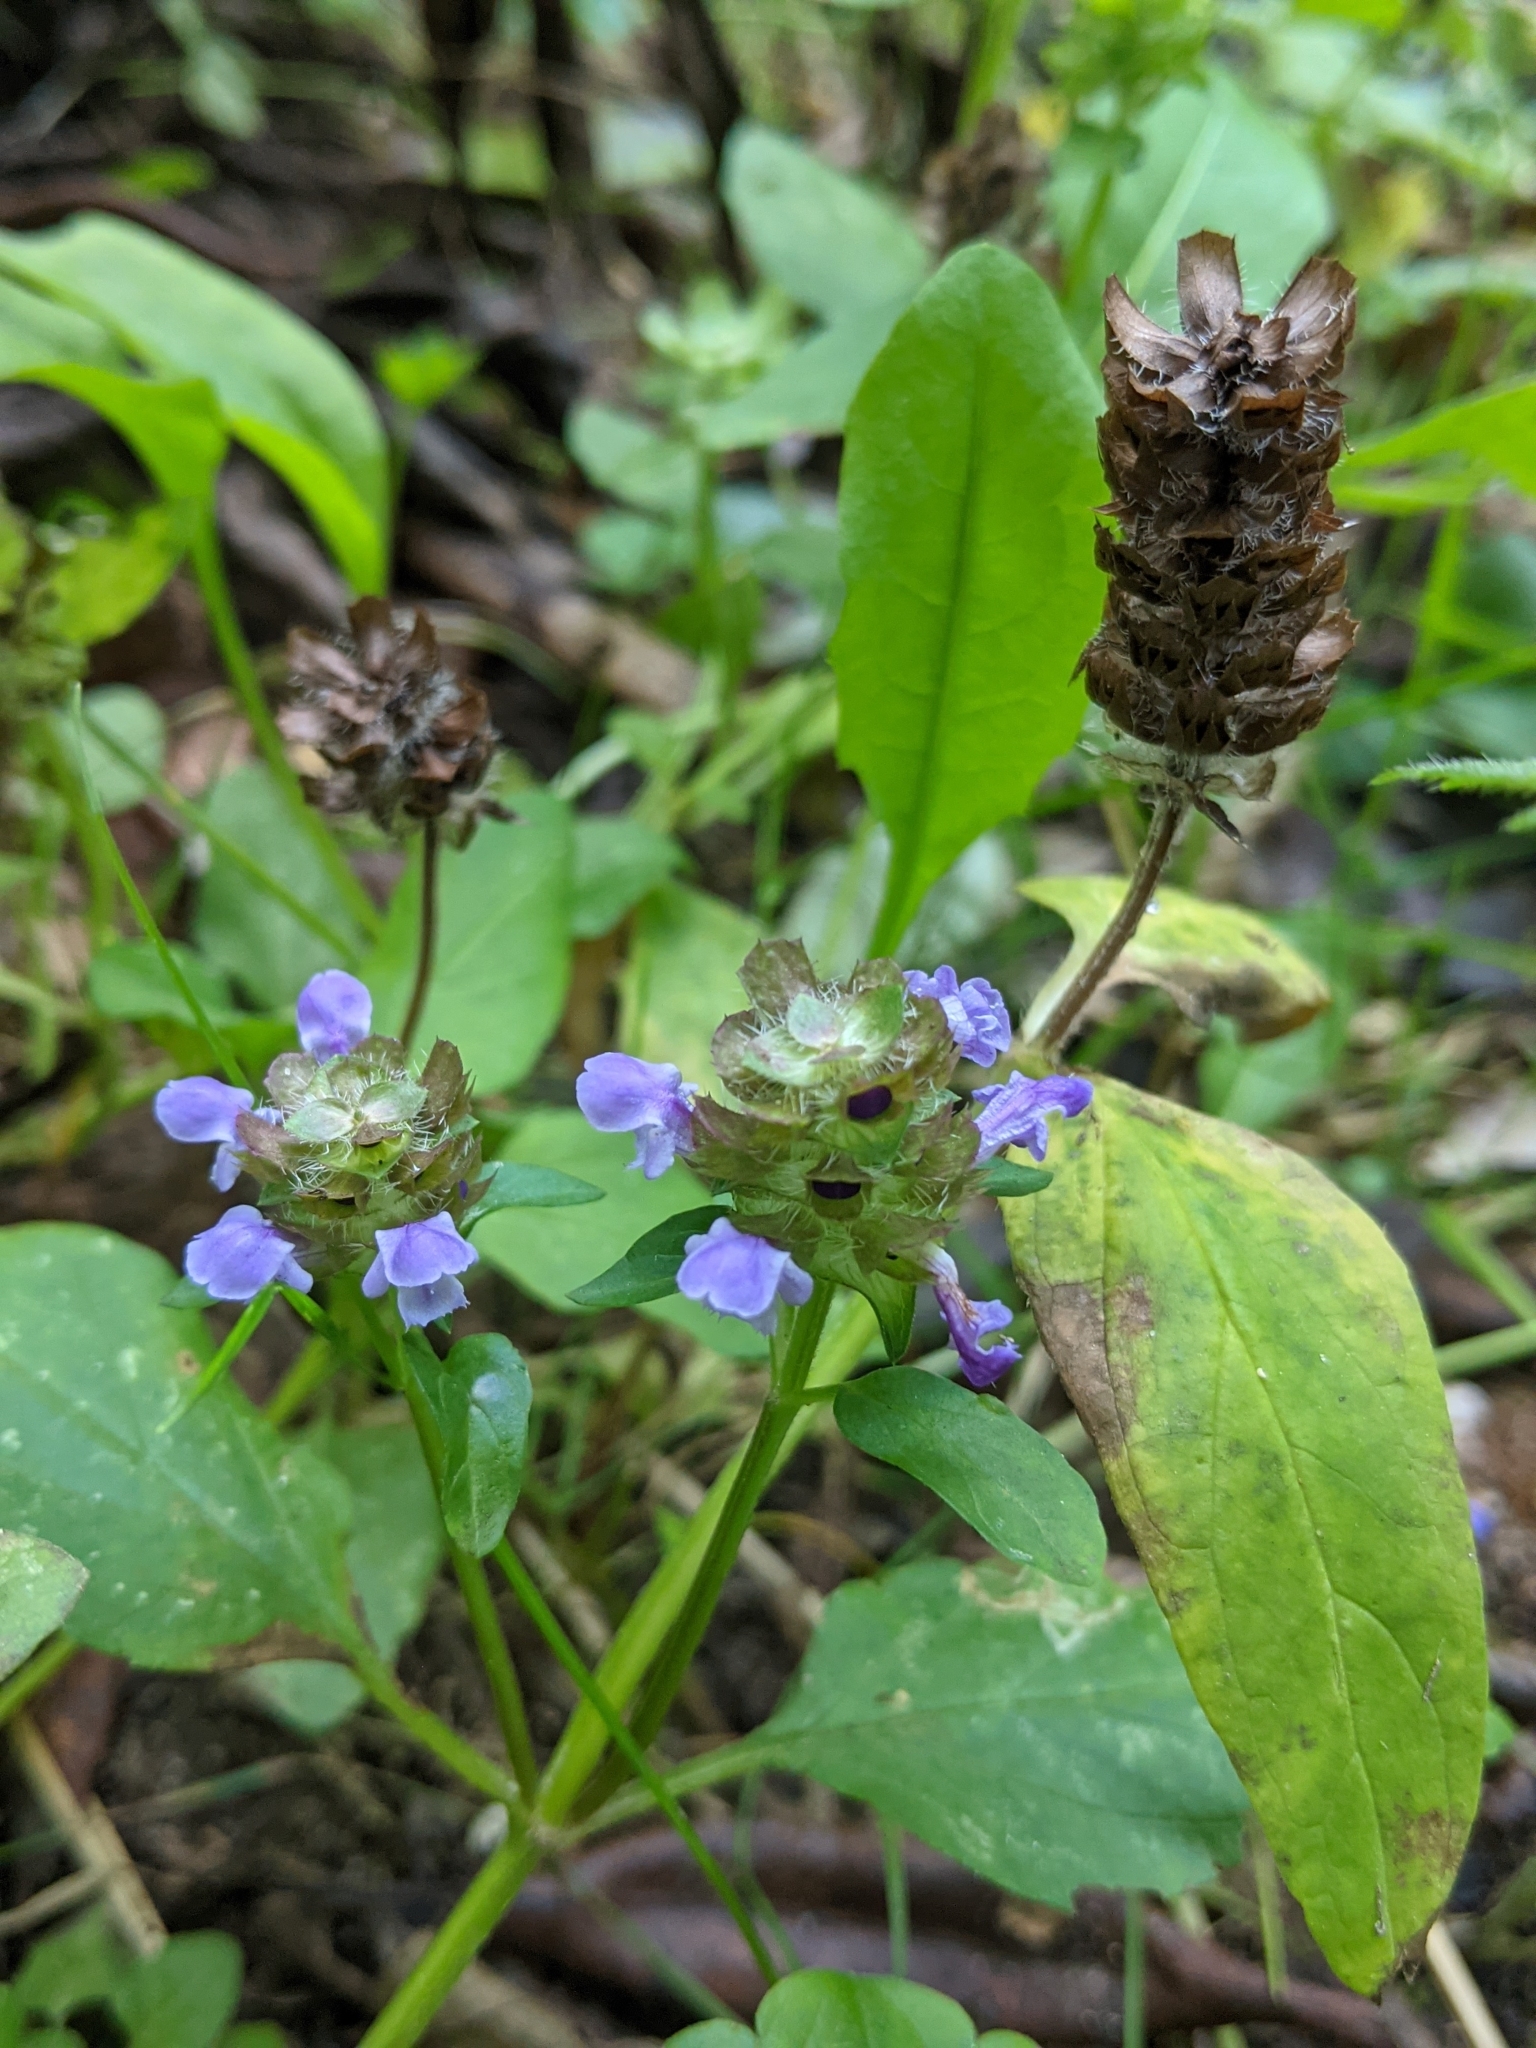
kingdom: Plantae
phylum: Tracheophyta
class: Magnoliopsida
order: Lamiales
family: Lamiaceae
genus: Prunella
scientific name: Prunella vulgaris
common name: Heal-all
